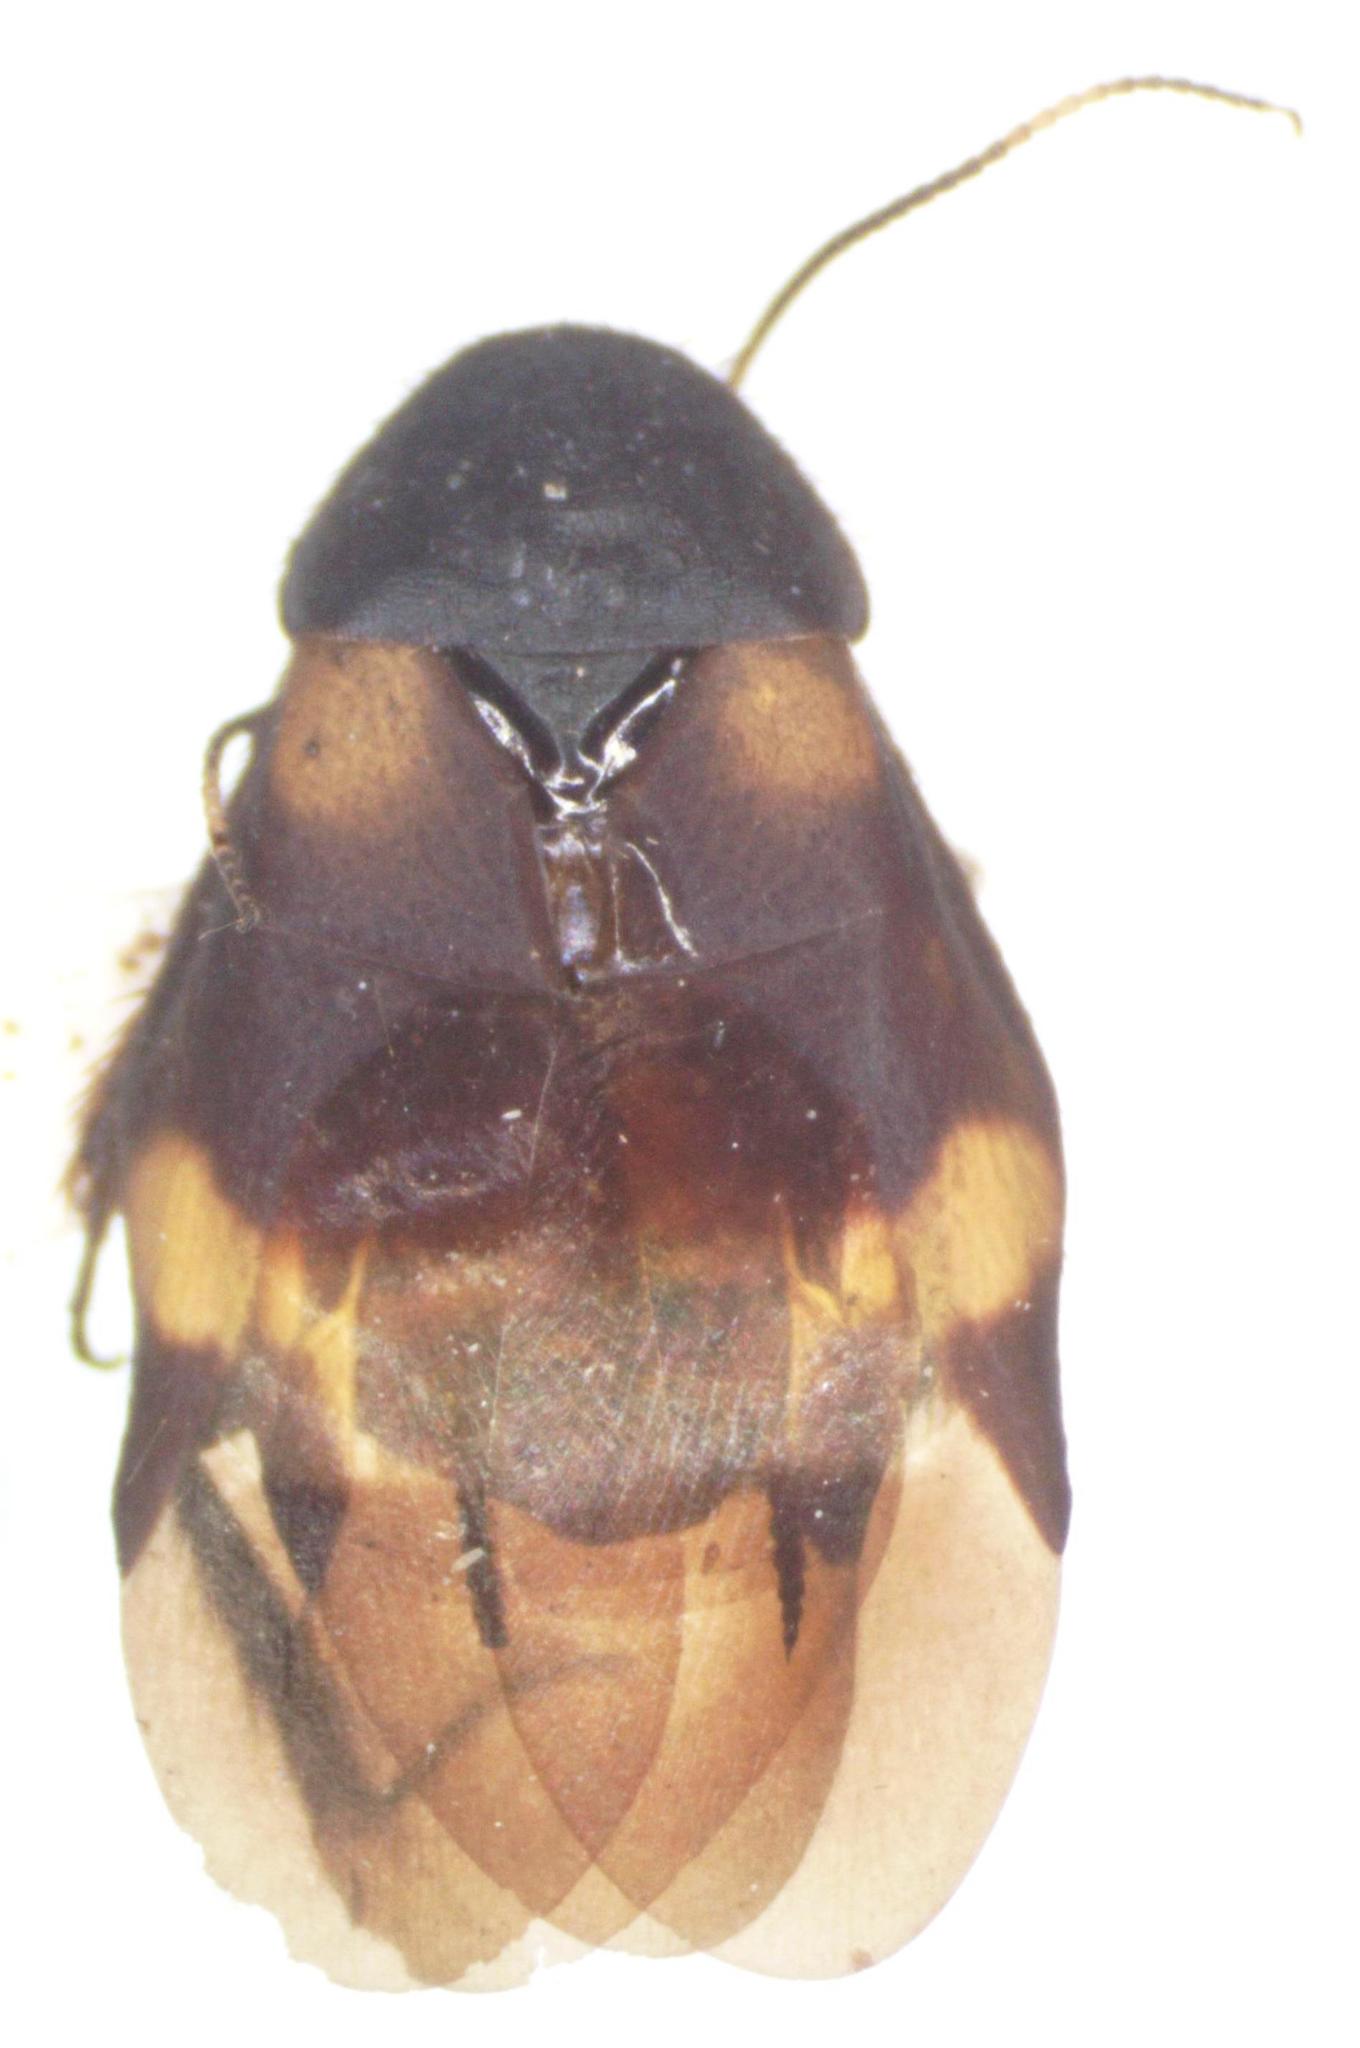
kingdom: Animalia
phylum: Arthropoda
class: Insecta
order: Blattodea
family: Corydiidae
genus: Holocompsa
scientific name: Holocompsa azteca
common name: Aztec hairy cockroach
